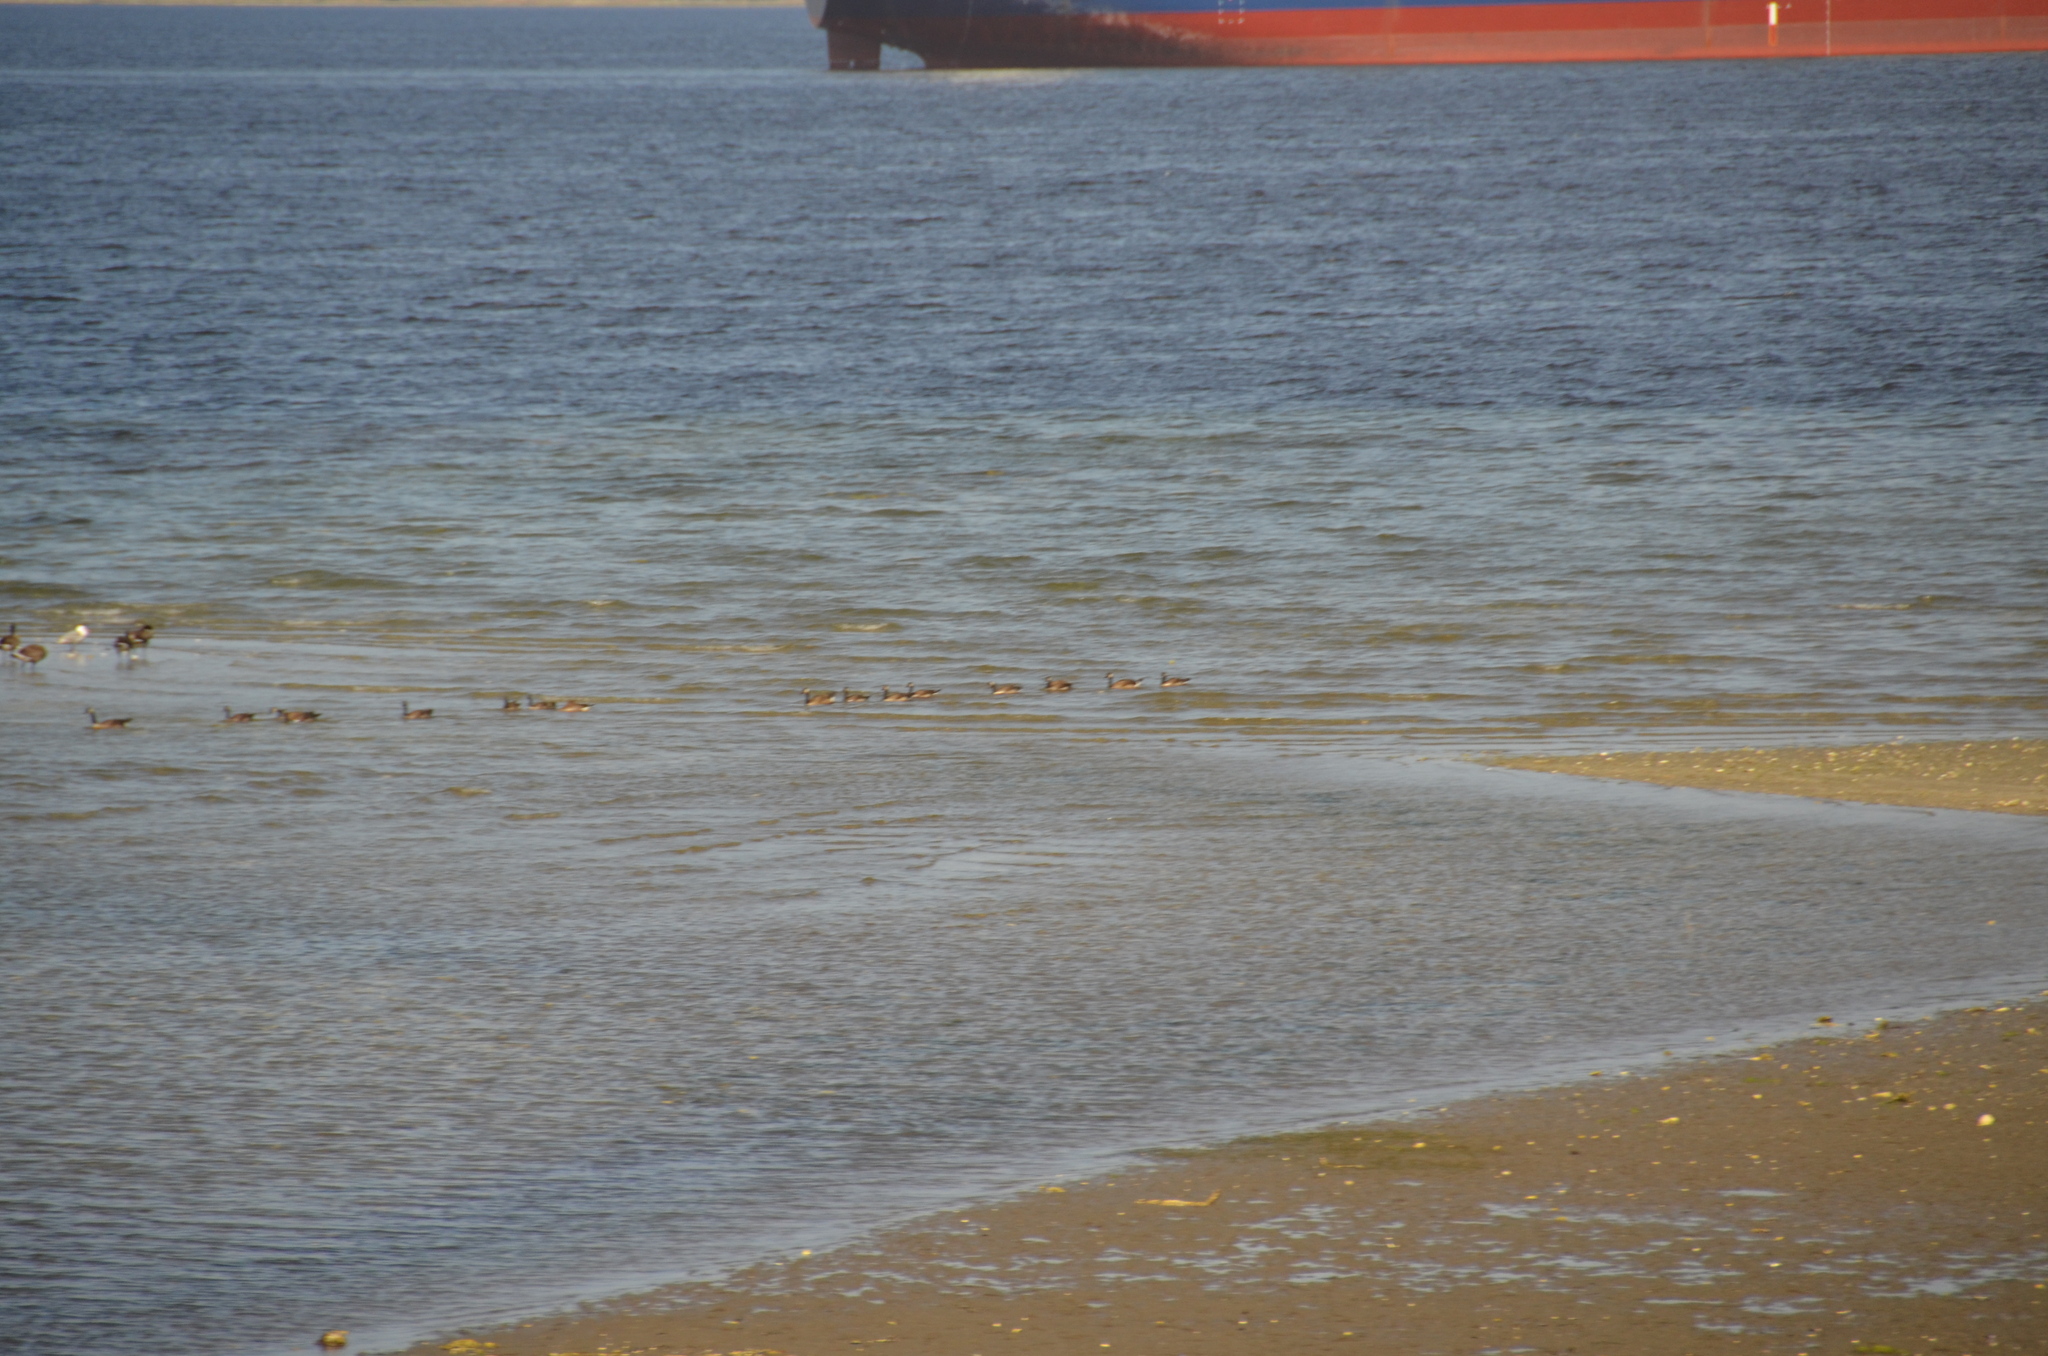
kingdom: Animalia
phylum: Chordata
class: Aves
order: Anseriformes
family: Anatidae
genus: Branta
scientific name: Branta canadensis
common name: Canada goose
